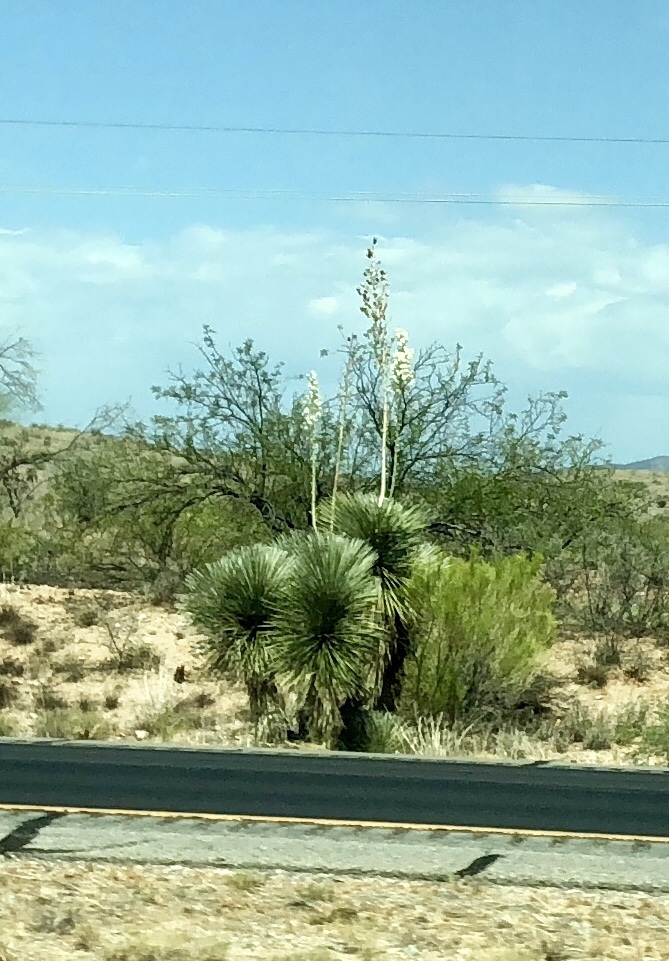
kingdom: Plantae
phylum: Tracheophyta
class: Liliopsida
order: Asparagales
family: Asparagaceae
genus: Yucca
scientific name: Yucca elata
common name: Palmella
